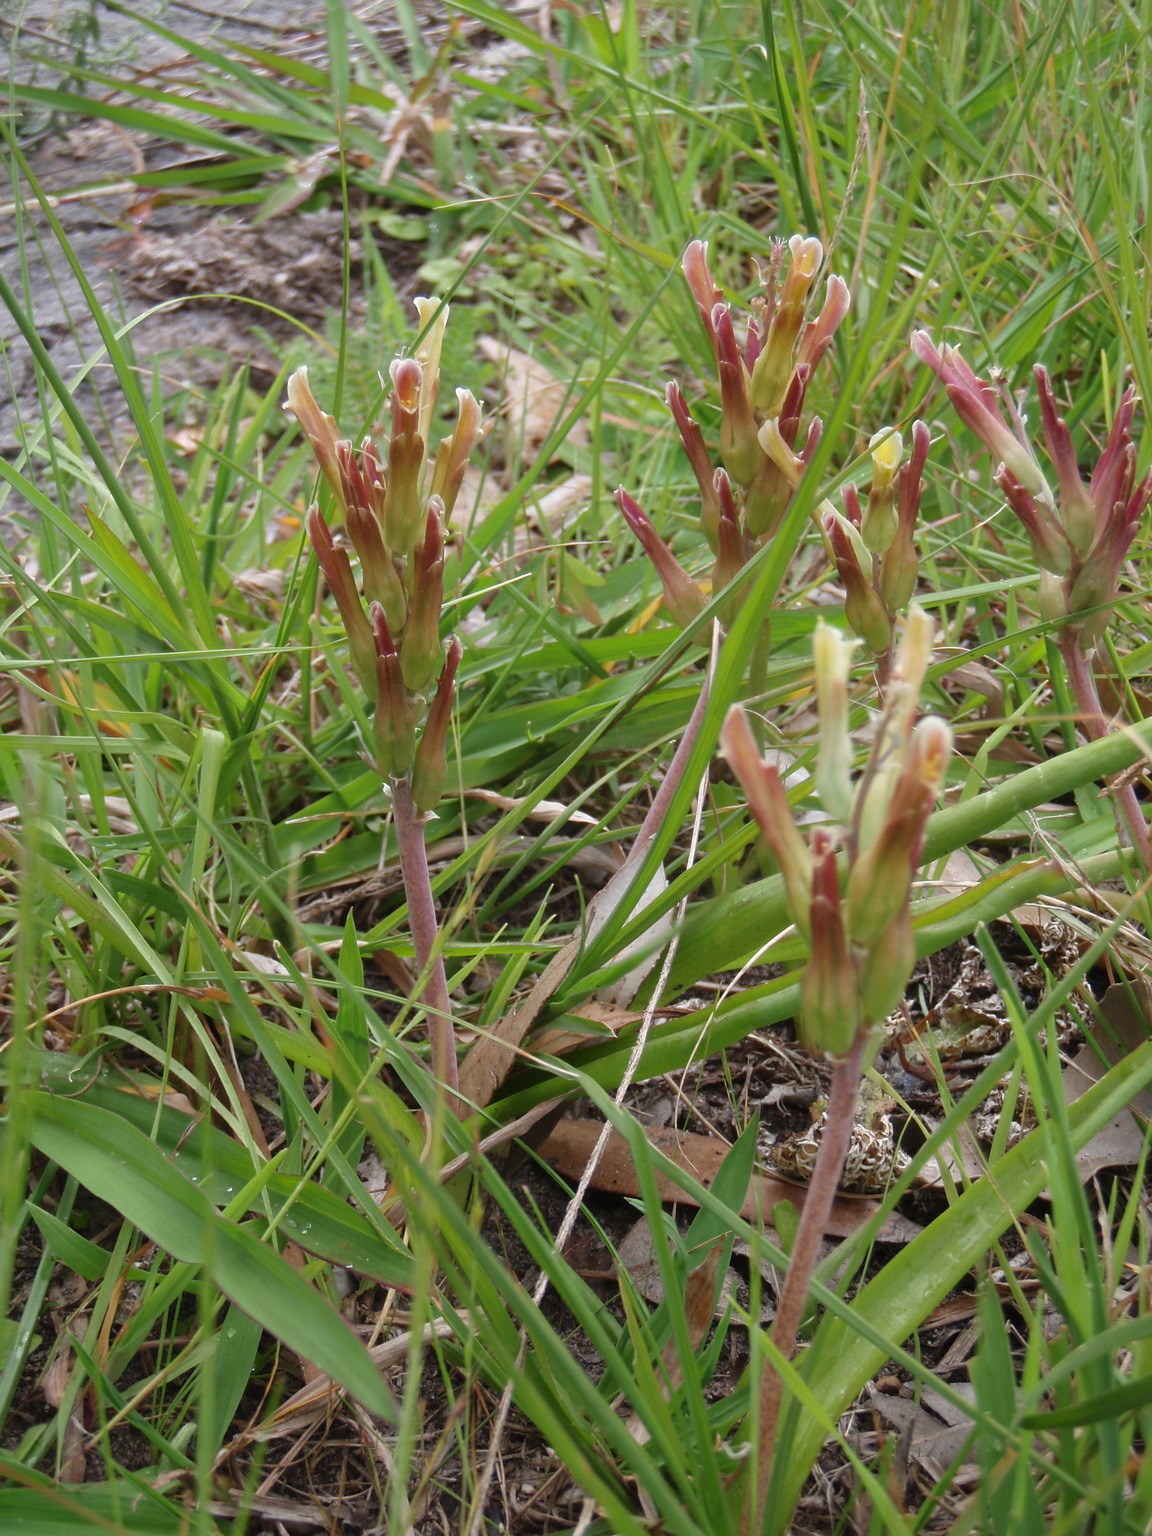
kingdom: Plantae
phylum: Tracheophyta
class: Liliopsida
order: Asparagales
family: Asparagaceae
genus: Lachenalia
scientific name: Lachenalia algoensis
